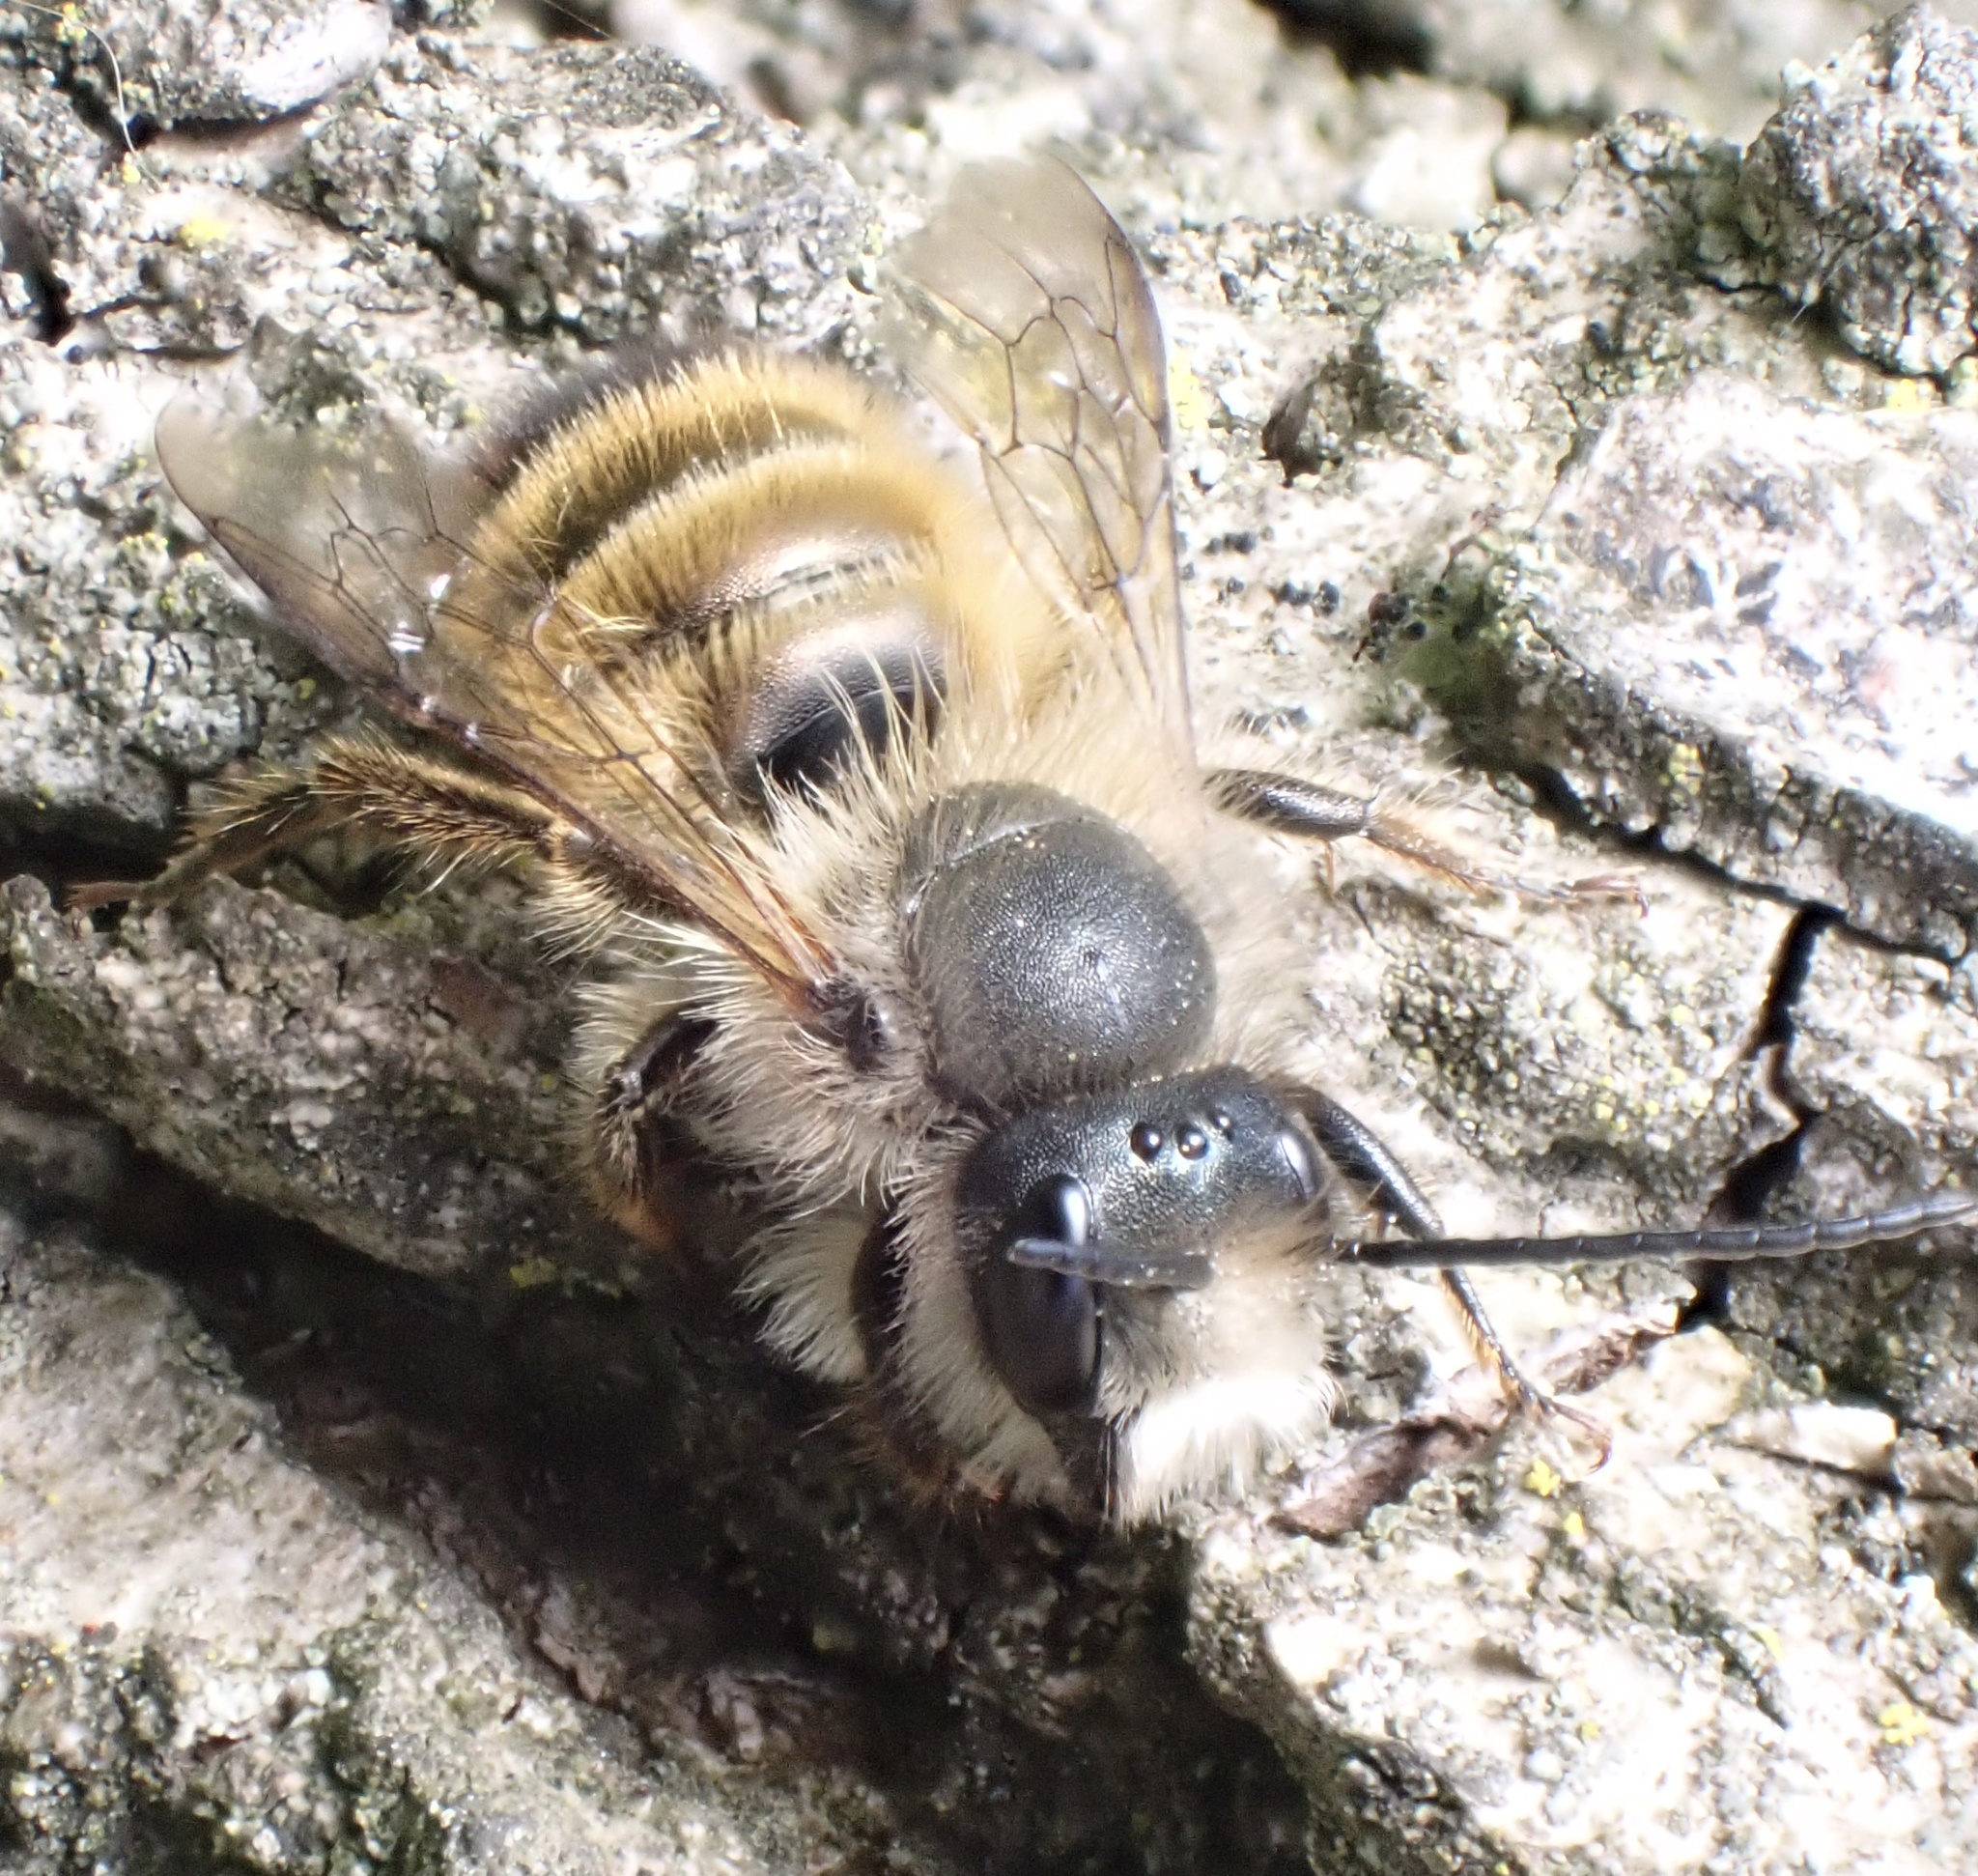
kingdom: Animalia
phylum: Arthropoda
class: Insecta
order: Hymenoptera
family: Megachilidae
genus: Osmia
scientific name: Osmia bicornis
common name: Red mason bee
